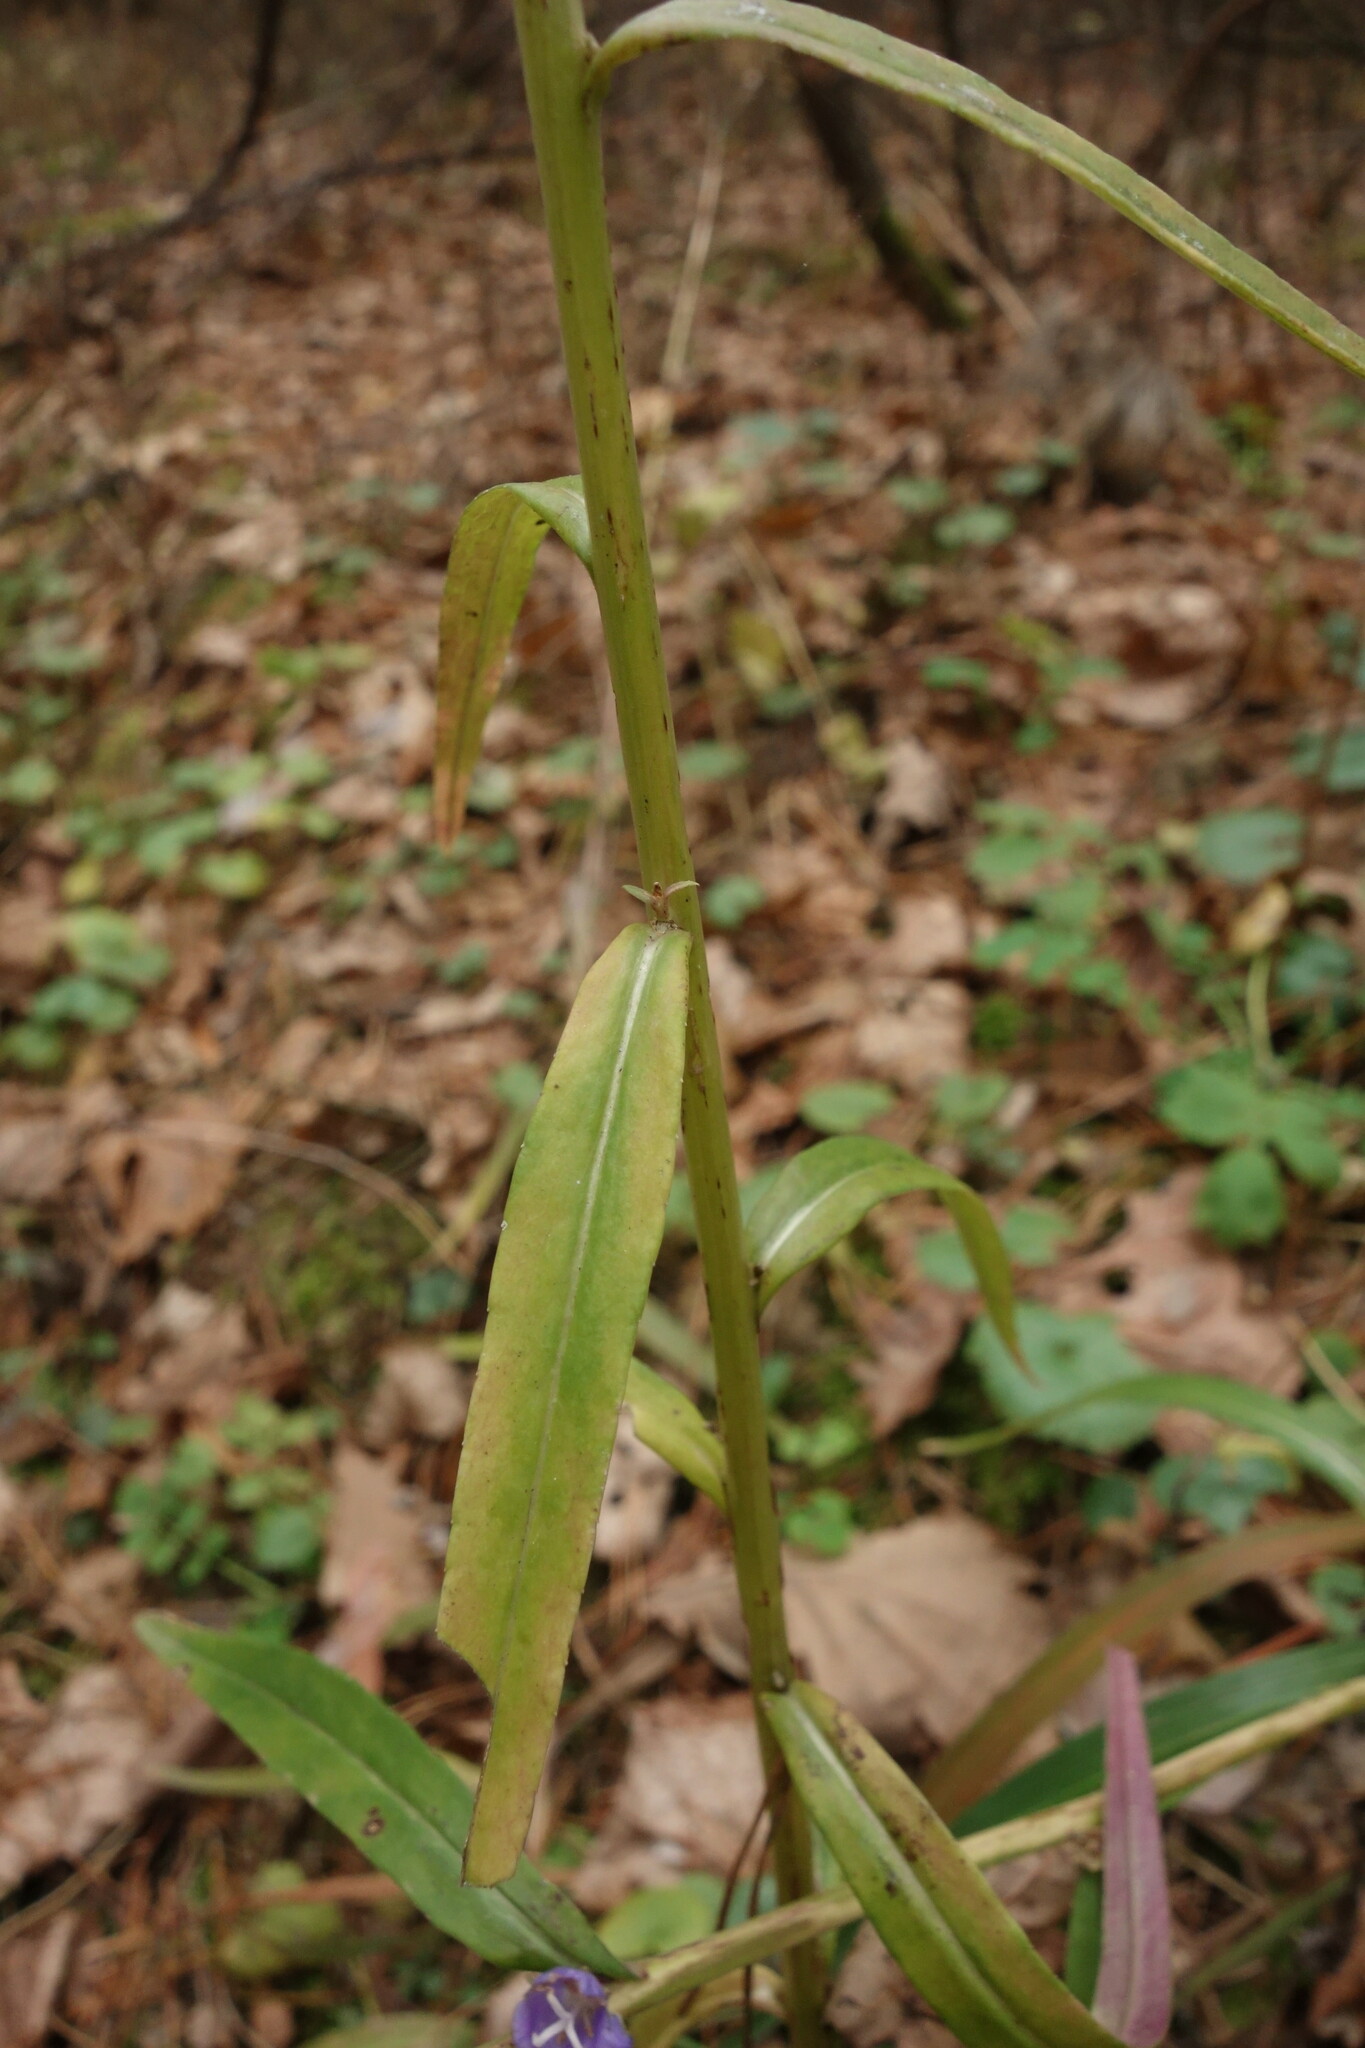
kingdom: Plantae
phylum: Tracheophyta
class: Magnoliopsida
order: Asterales
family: Campanulaceae
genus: Campanula
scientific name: Campanula persicifolia
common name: Peach-leaved bellflower
